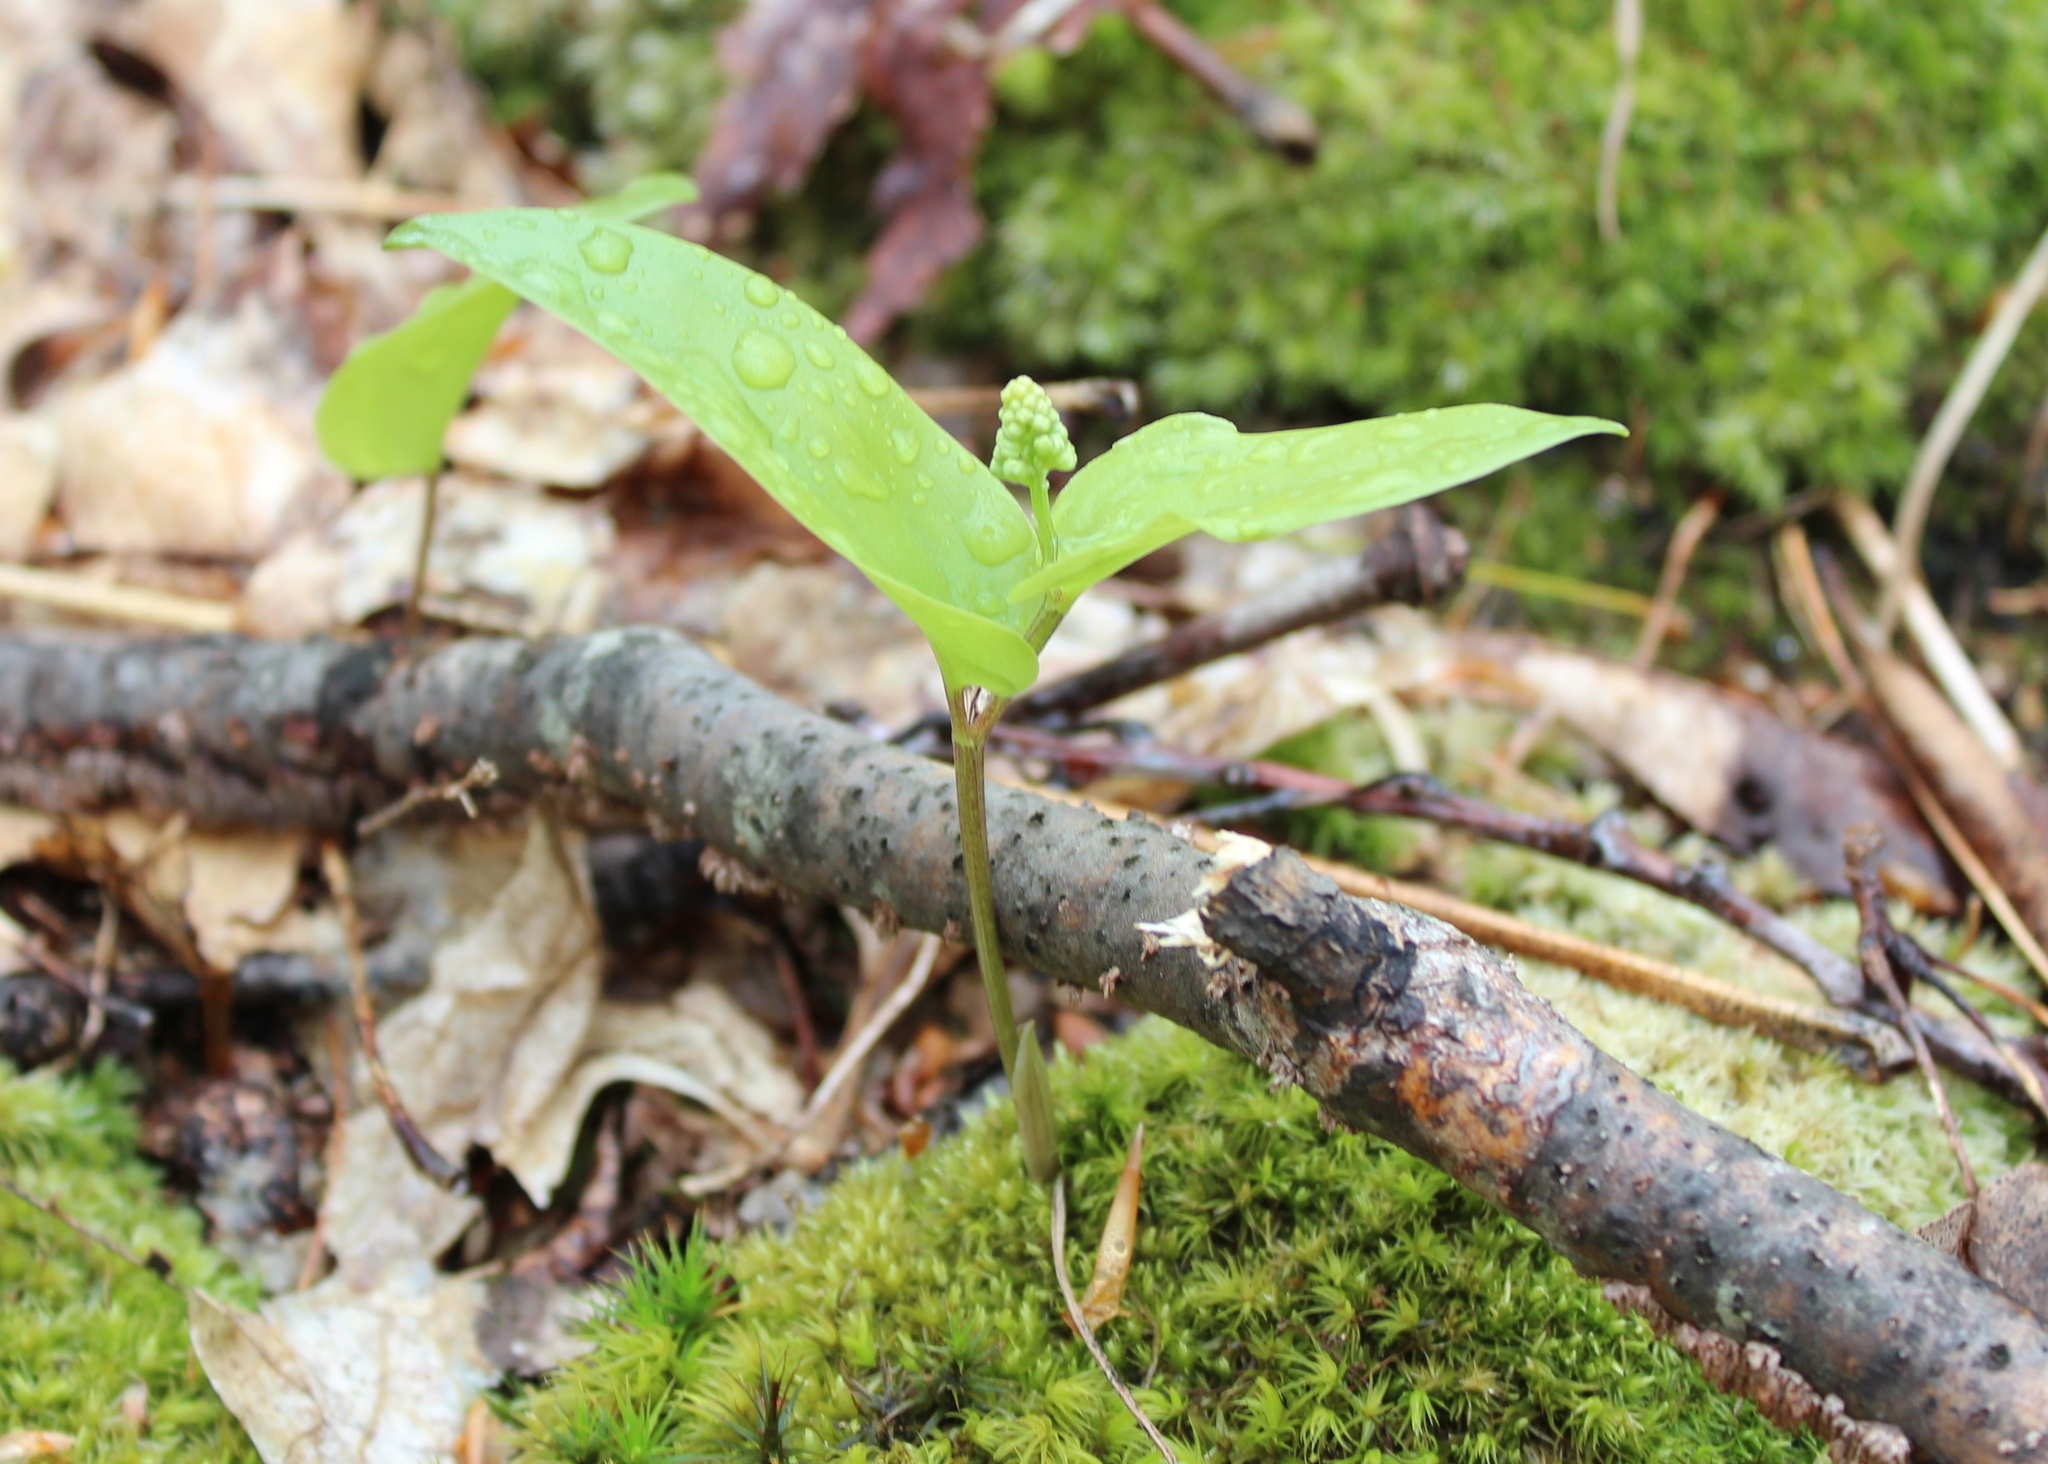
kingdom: Plantae
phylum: Tracheophyta
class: Liliopsida
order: Asparagales
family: Asparagaceae
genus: Maianthemum
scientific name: Maianthemum canadense
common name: False lily-of-the-valley
